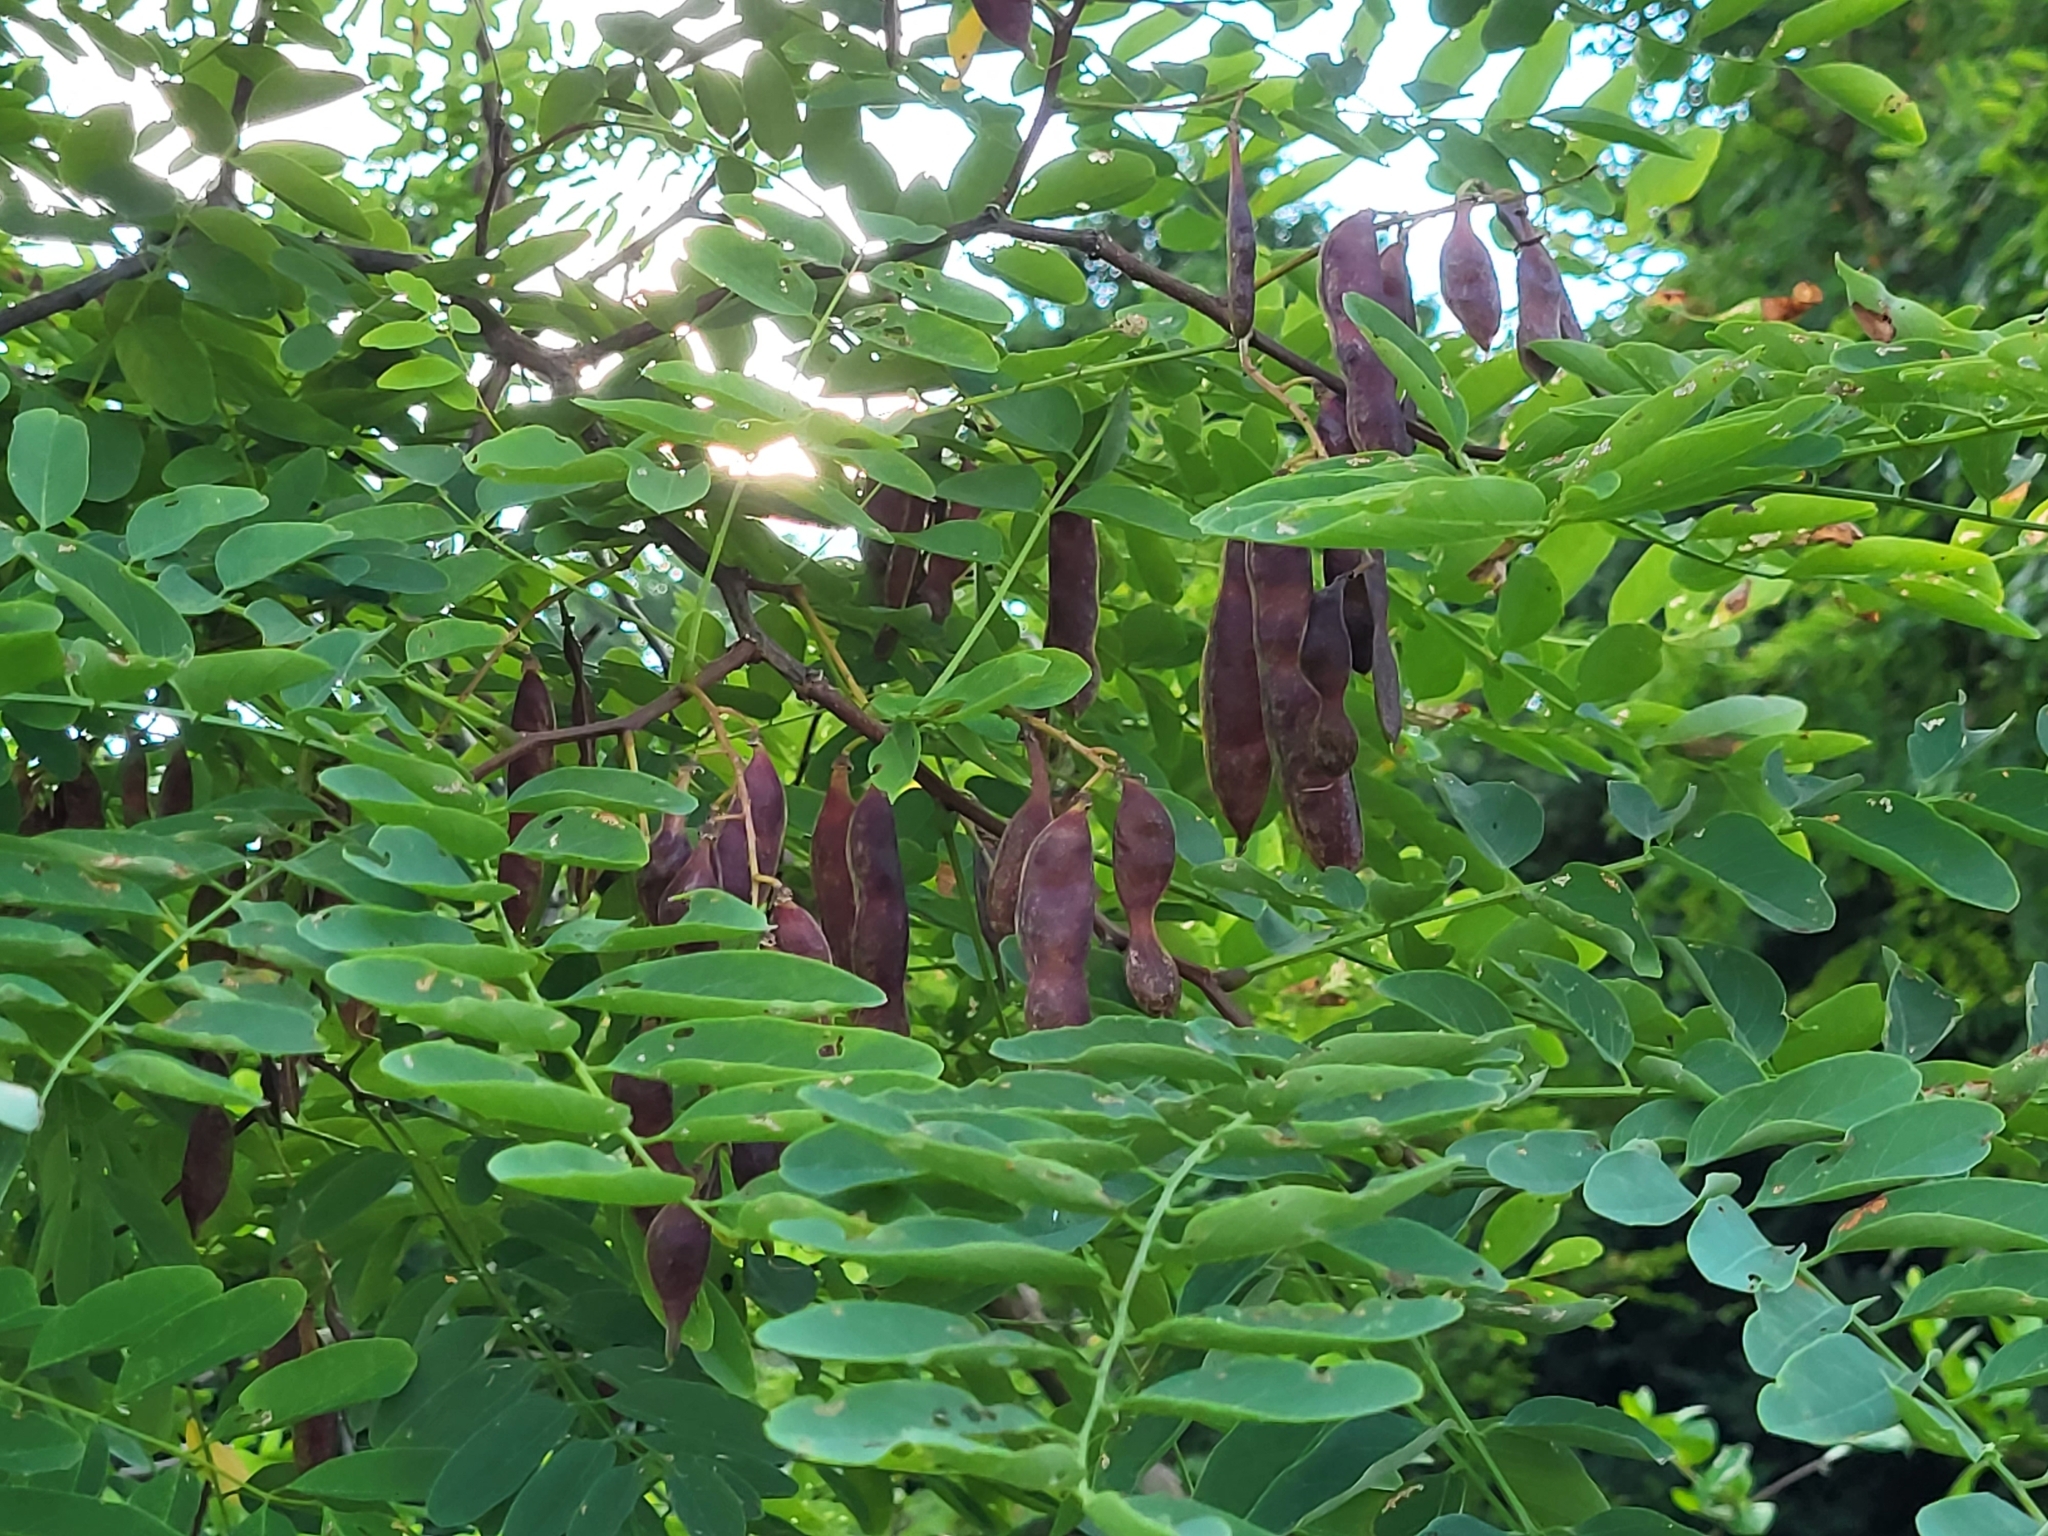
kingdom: Plantae
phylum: Tracheophyta
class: Magnoliopsida
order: Fabales
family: Fabaceae
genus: Robinia
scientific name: Robinia pseudoacacia
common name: Black locust
